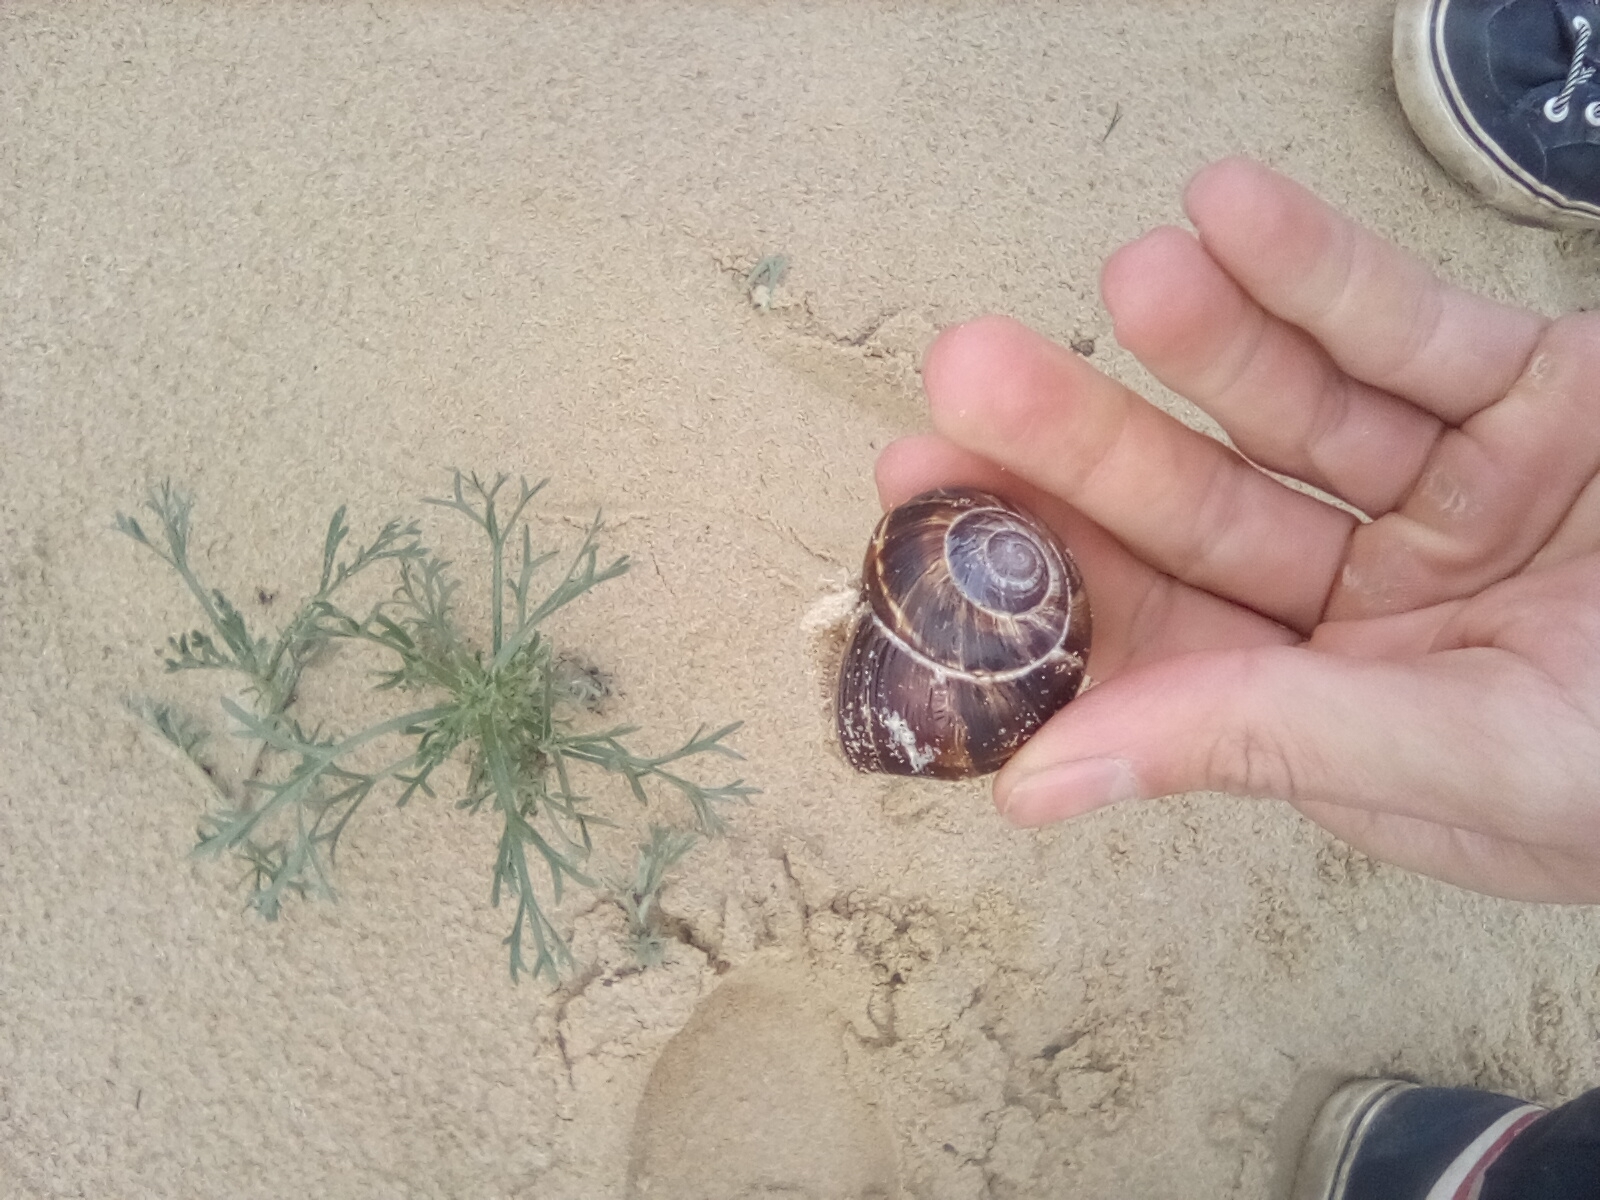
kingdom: Animalia
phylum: Mollusca
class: Gastropoda
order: Stylommatophora
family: Helicidae
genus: Helix
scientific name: Helix lucorum
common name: Turkish snail
